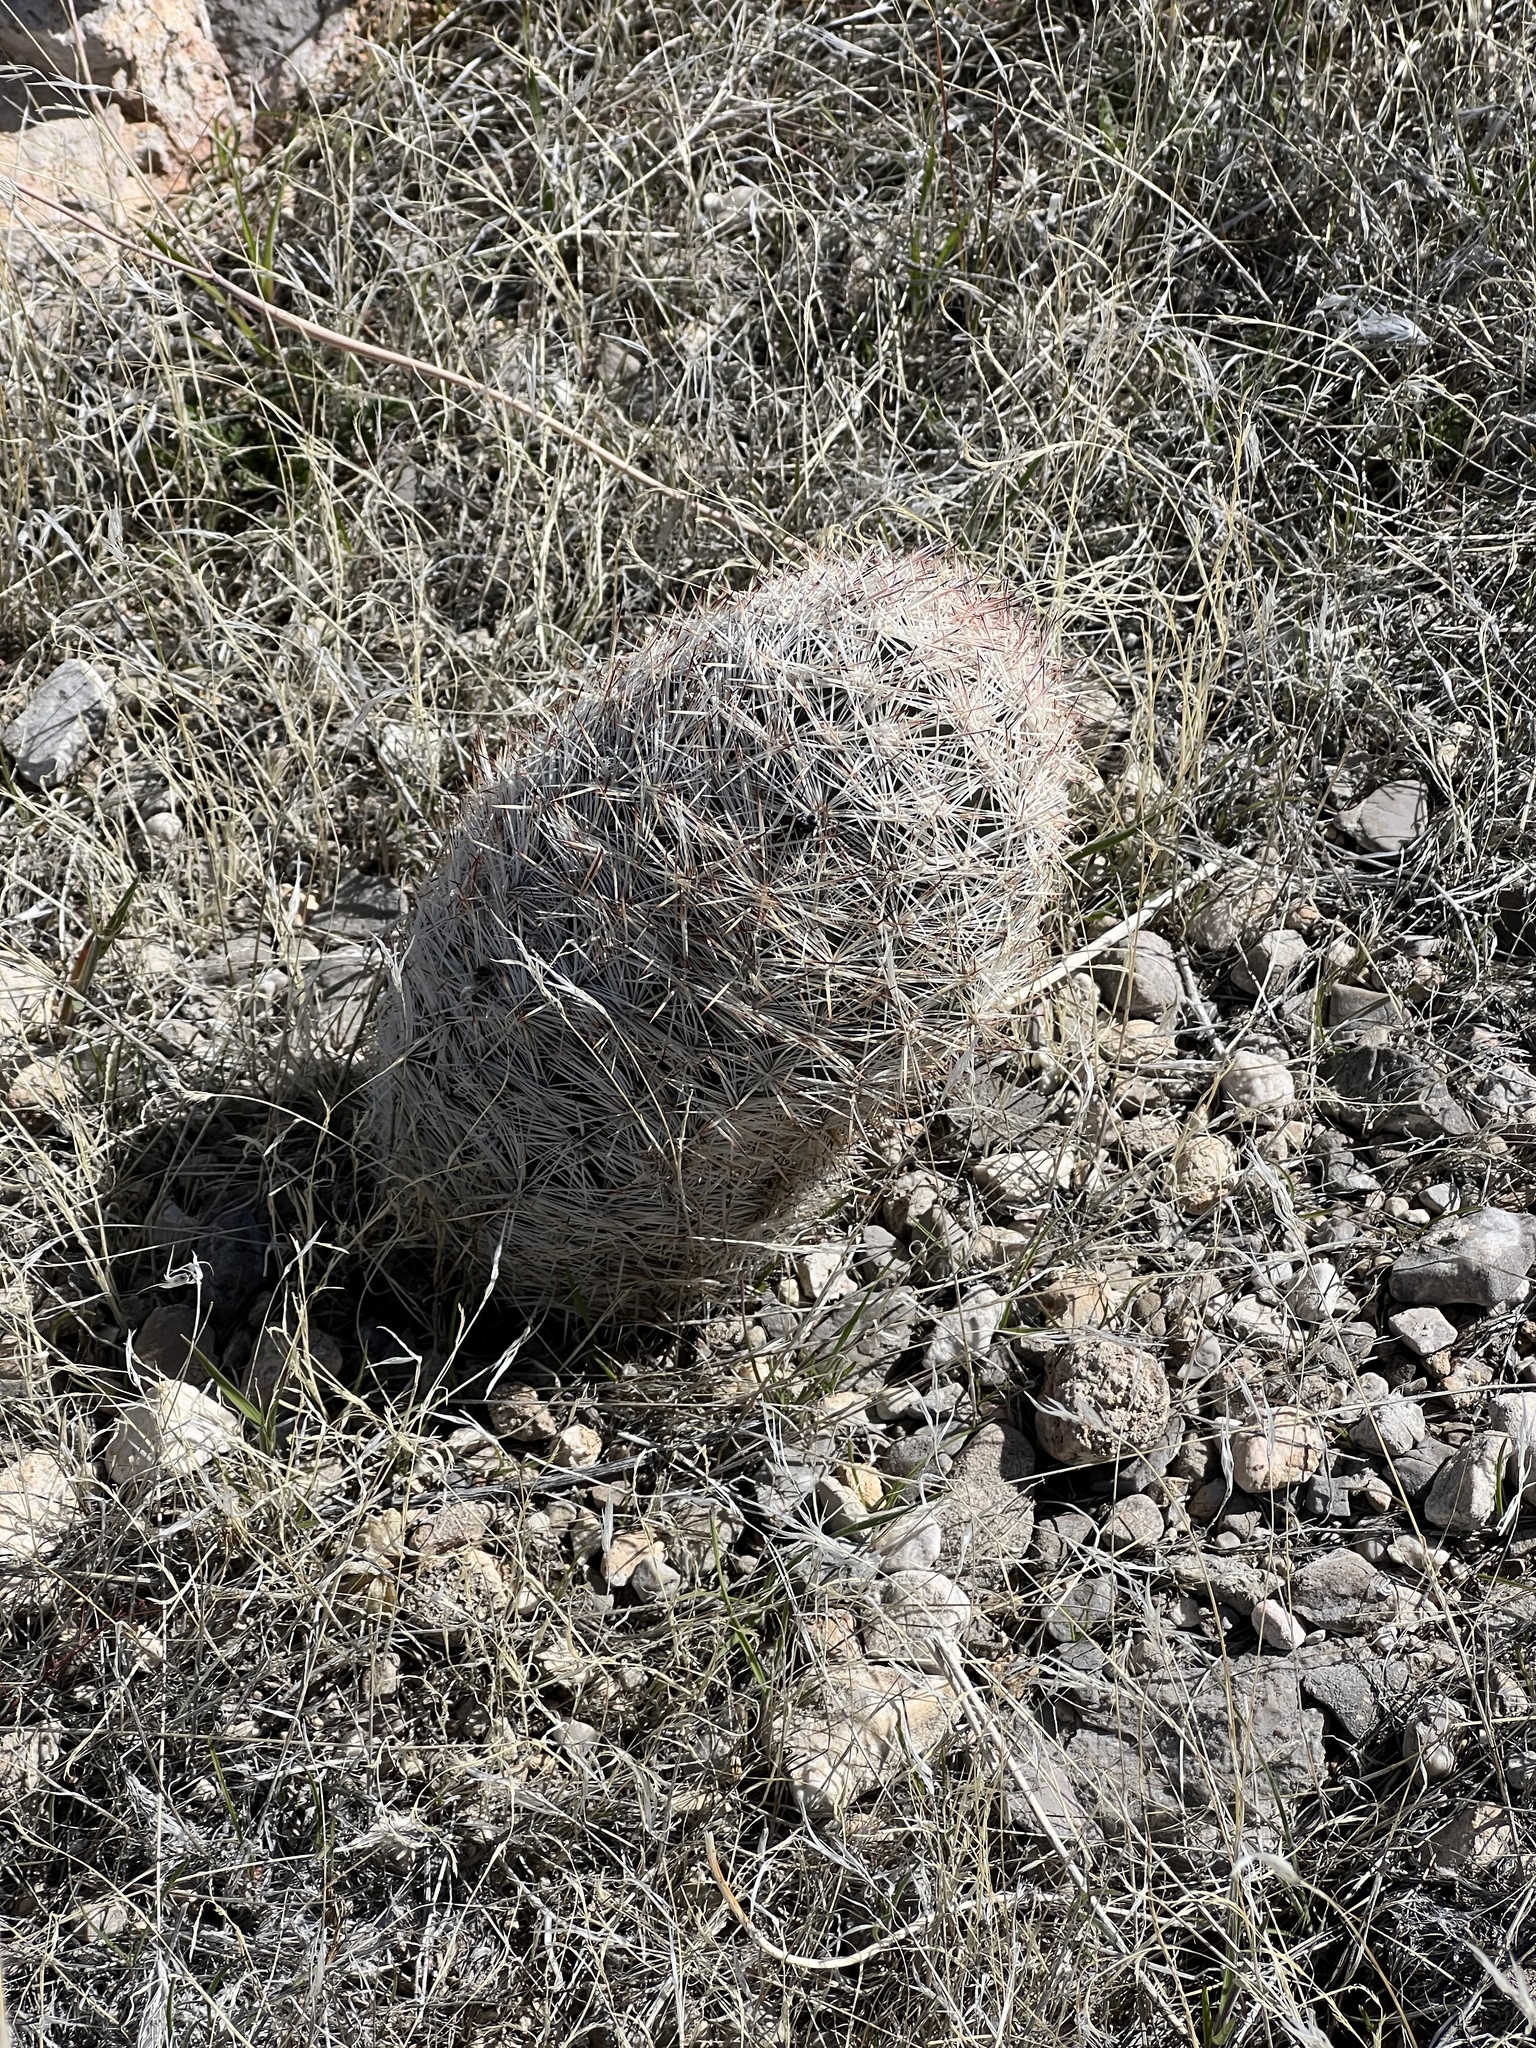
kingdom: Plantae
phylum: Tracheophyta
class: Magnoliopsida
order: Caryophyllales
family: Cactaceae
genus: Pelecyphora
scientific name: Pelecyphora dasyacantha
